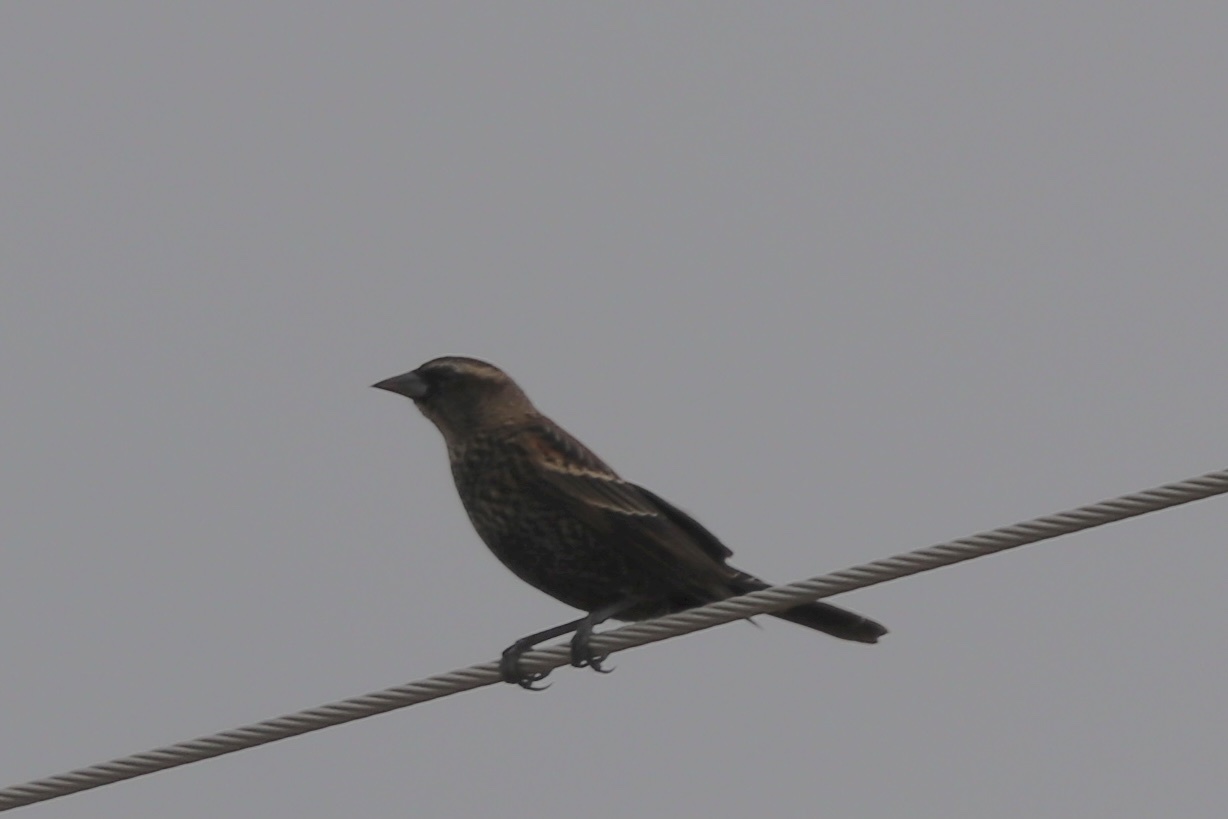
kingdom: Animalia
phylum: Chordata
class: Aves
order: Passeriformes
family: Icteridae
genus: Agelaius
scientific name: Agelaius phoeniceus
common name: Red-winged blackbird
